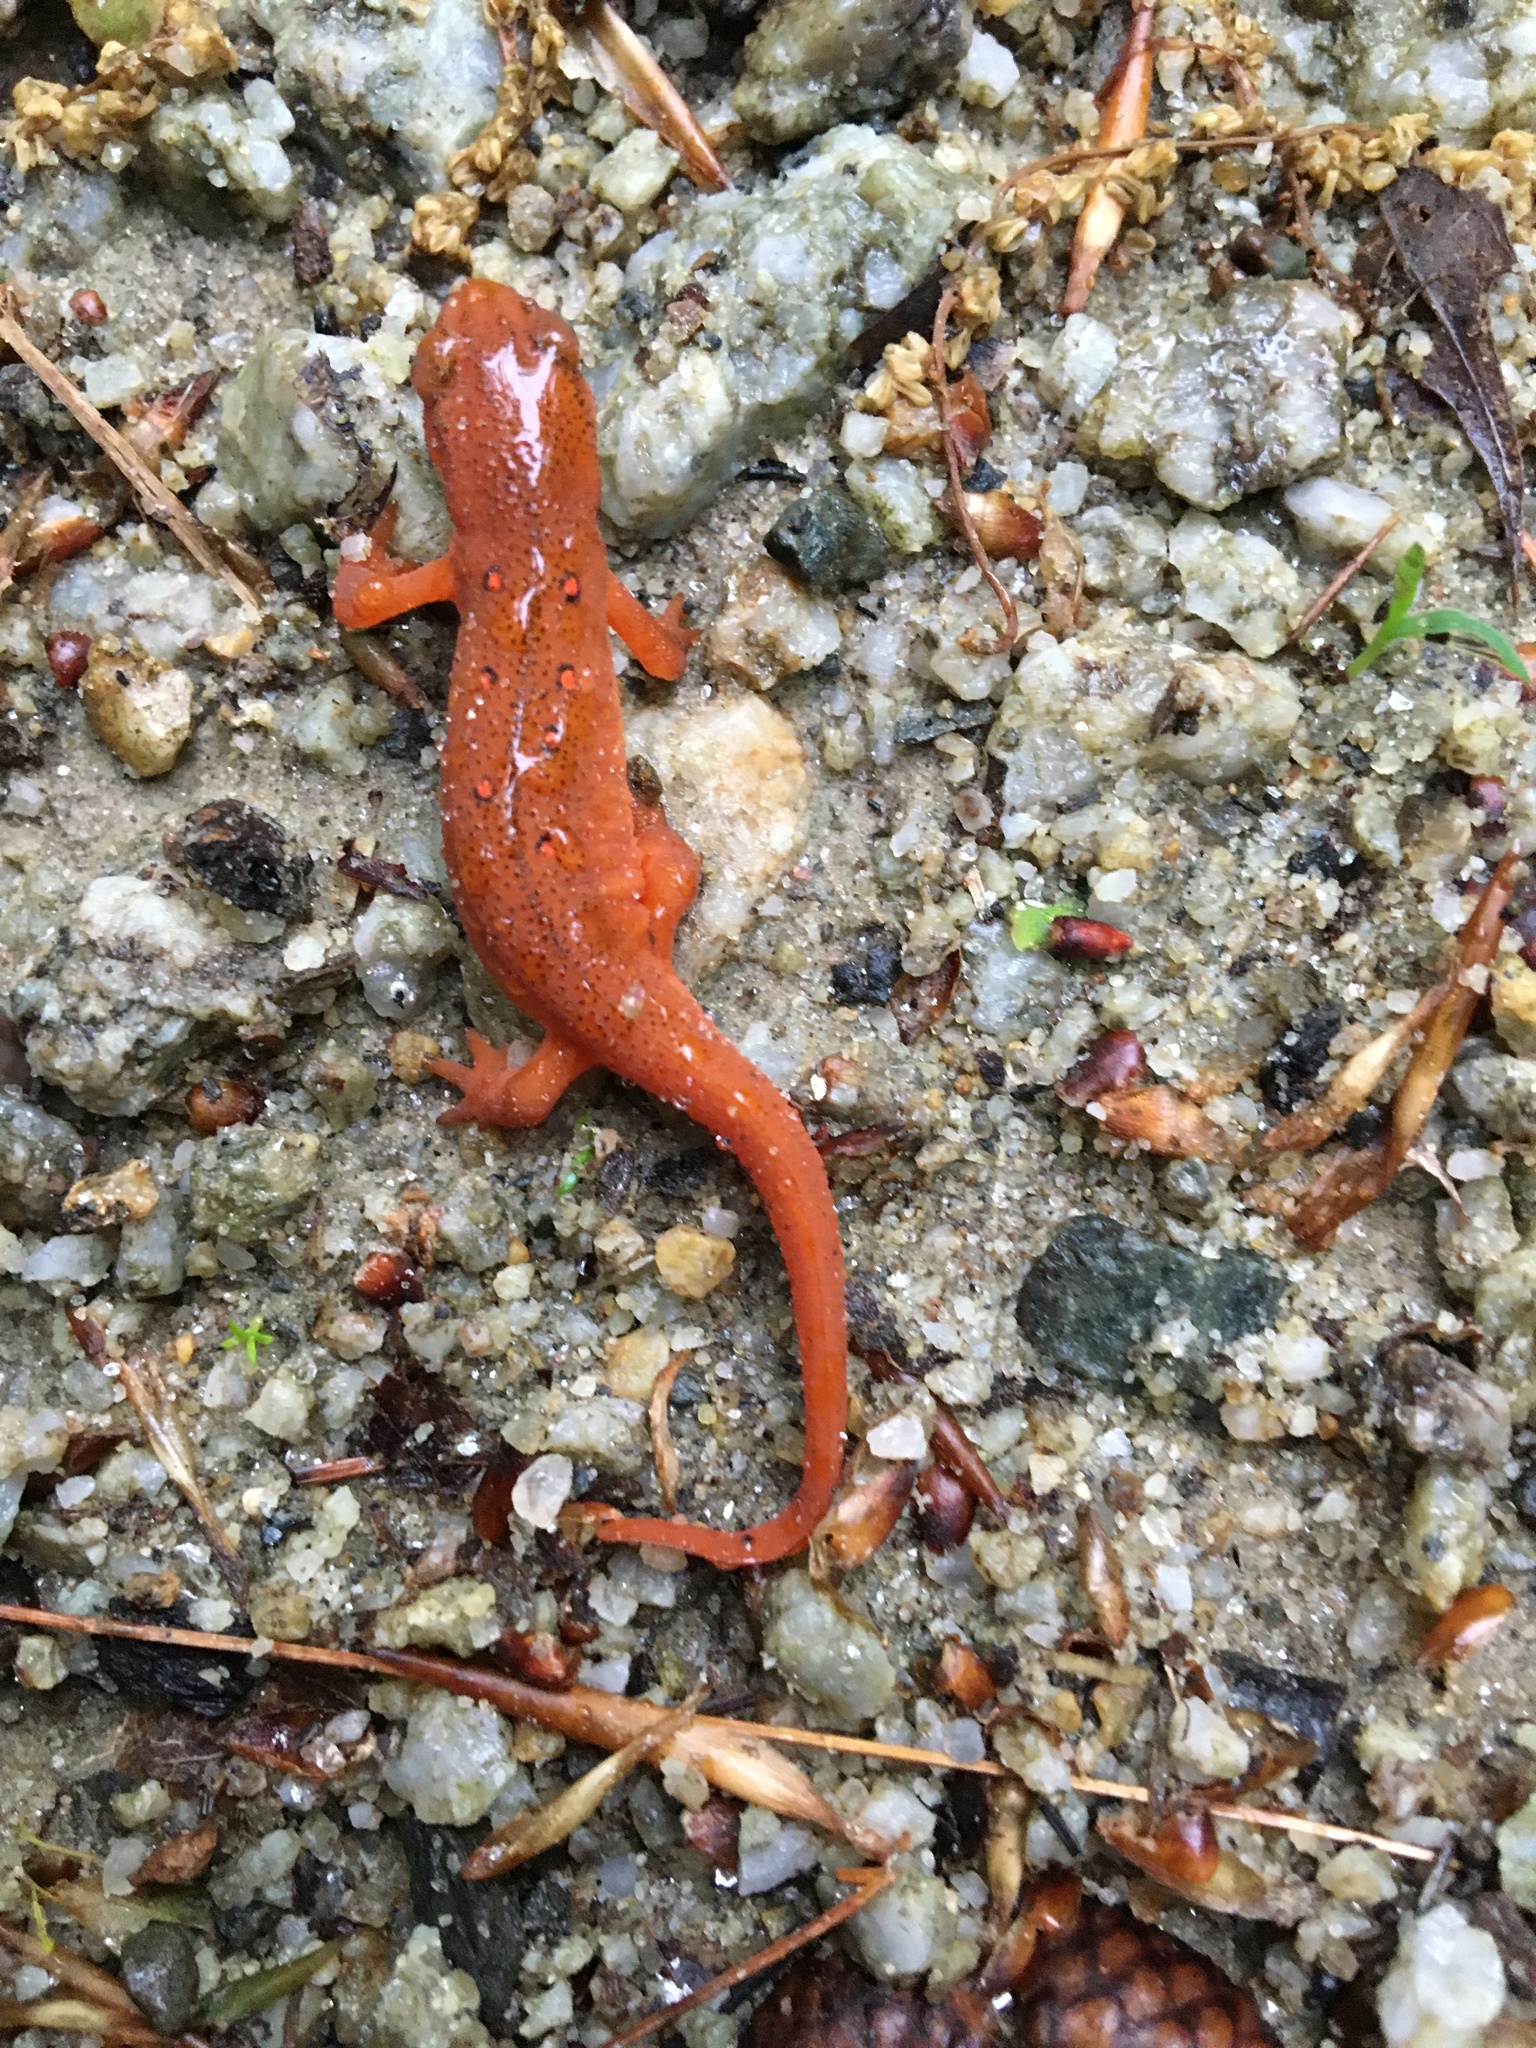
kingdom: Animalia
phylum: Chordata
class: Amphibia
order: Caudata
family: Salamandridae
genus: Notophthalmus
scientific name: Notophthalmus viridescens
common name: Eastern newt
